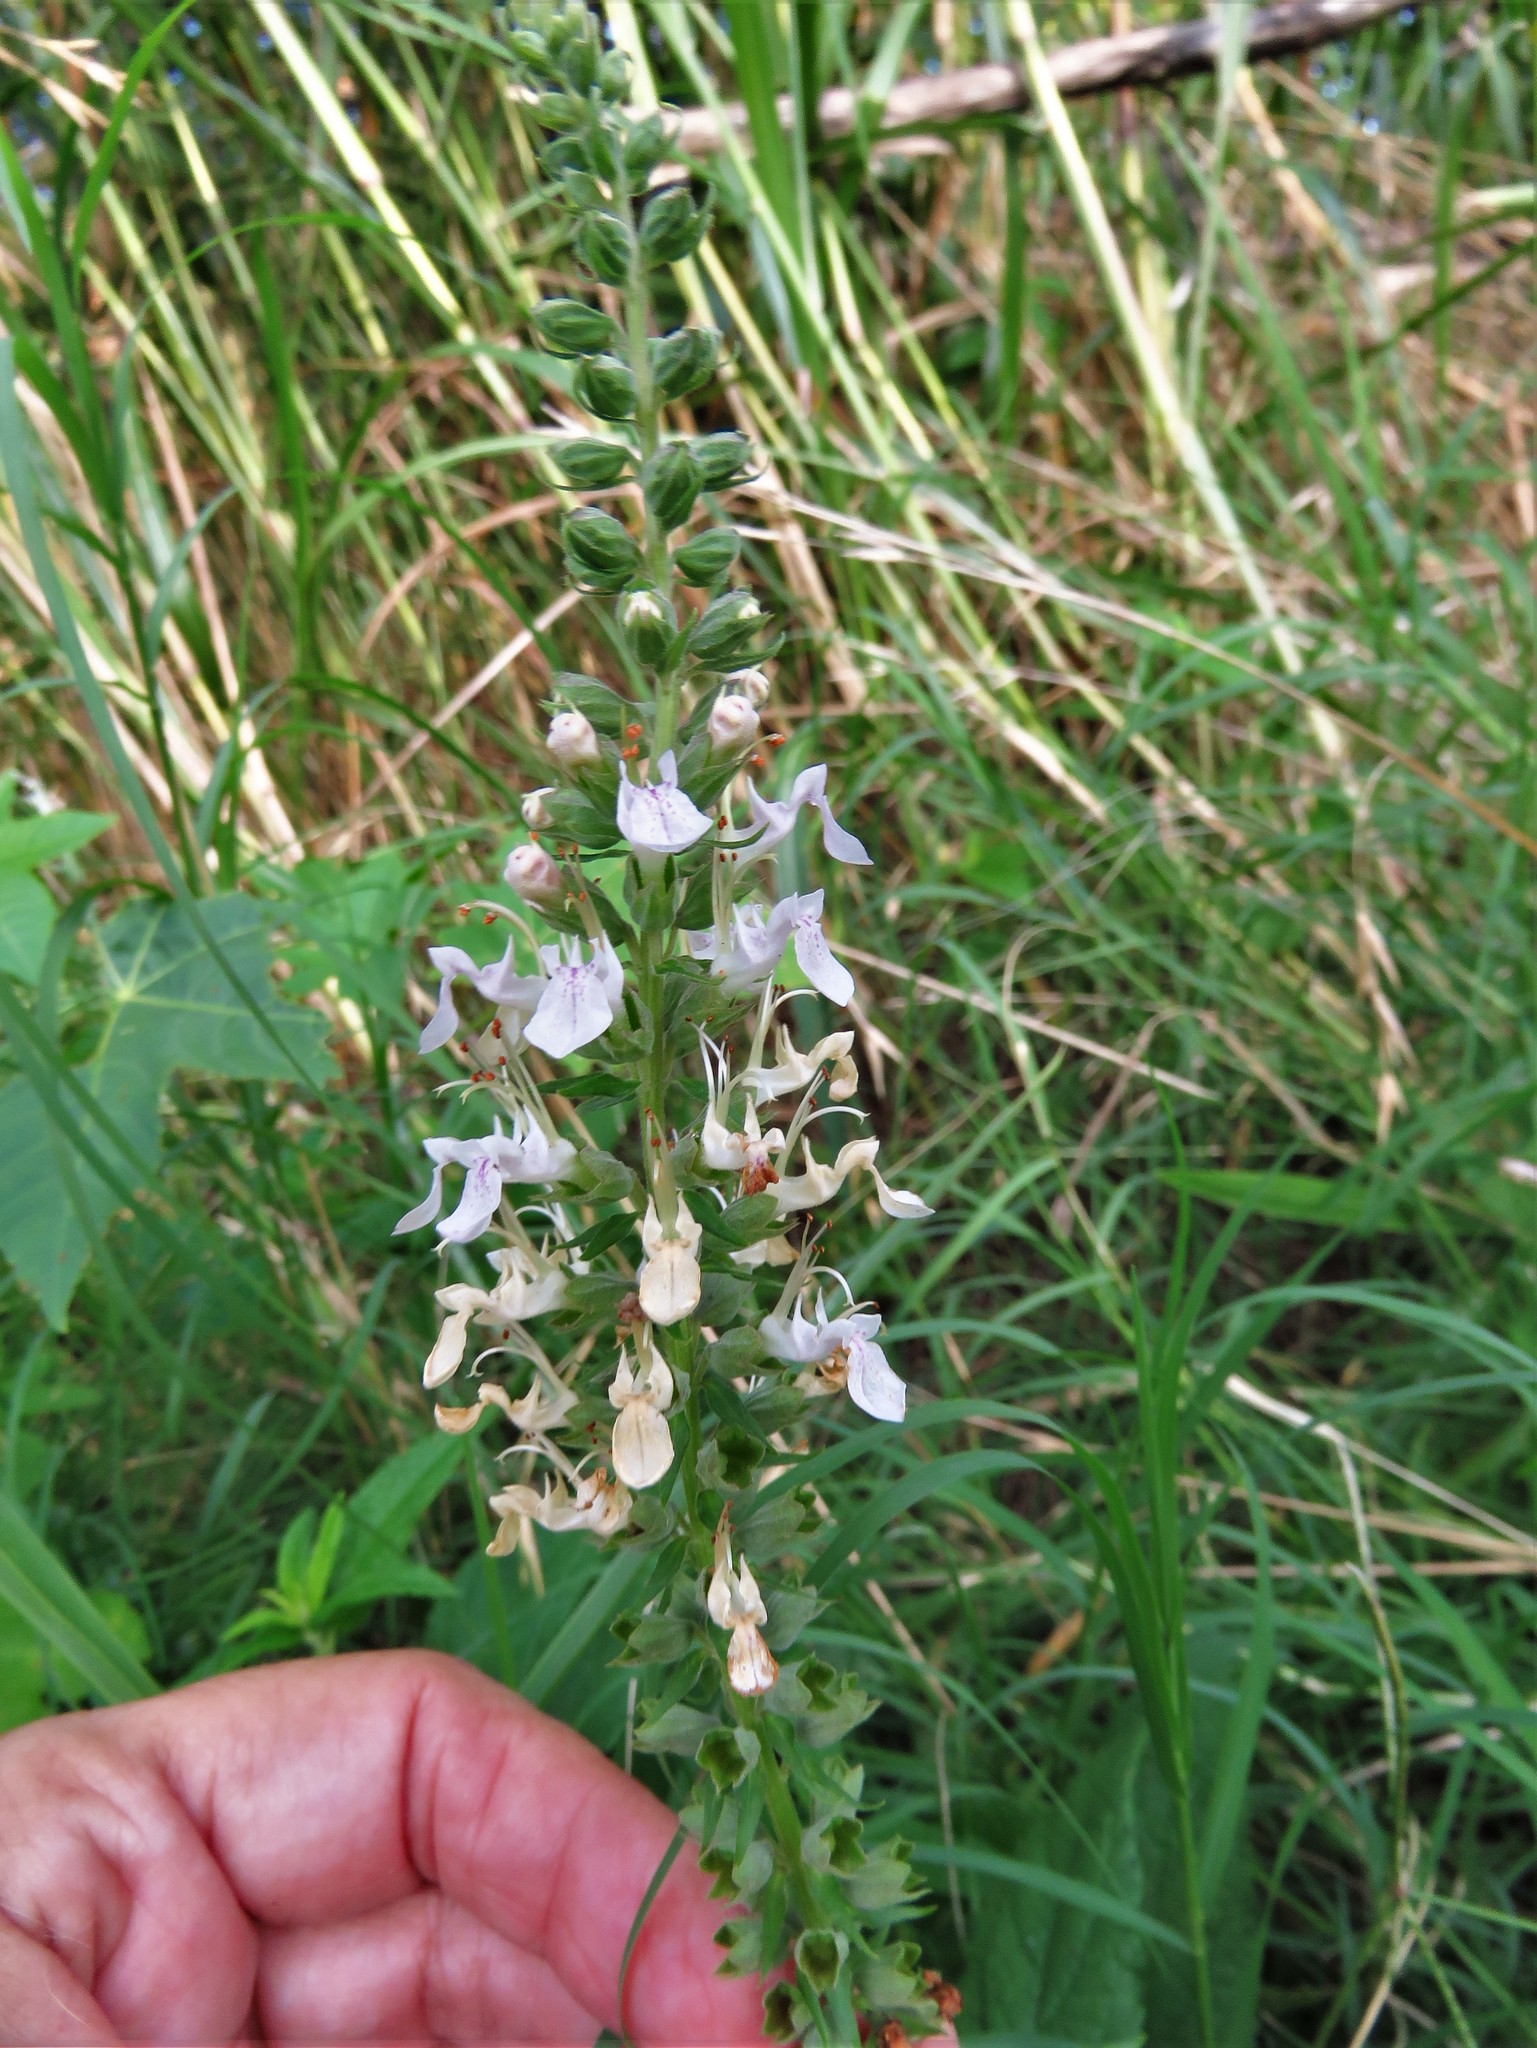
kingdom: Plantae
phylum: Tracheophyta
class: Magnoliopsida
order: Lamiales
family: Lamiaceae
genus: Teucrium
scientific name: Teucrium canadense
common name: American germander
